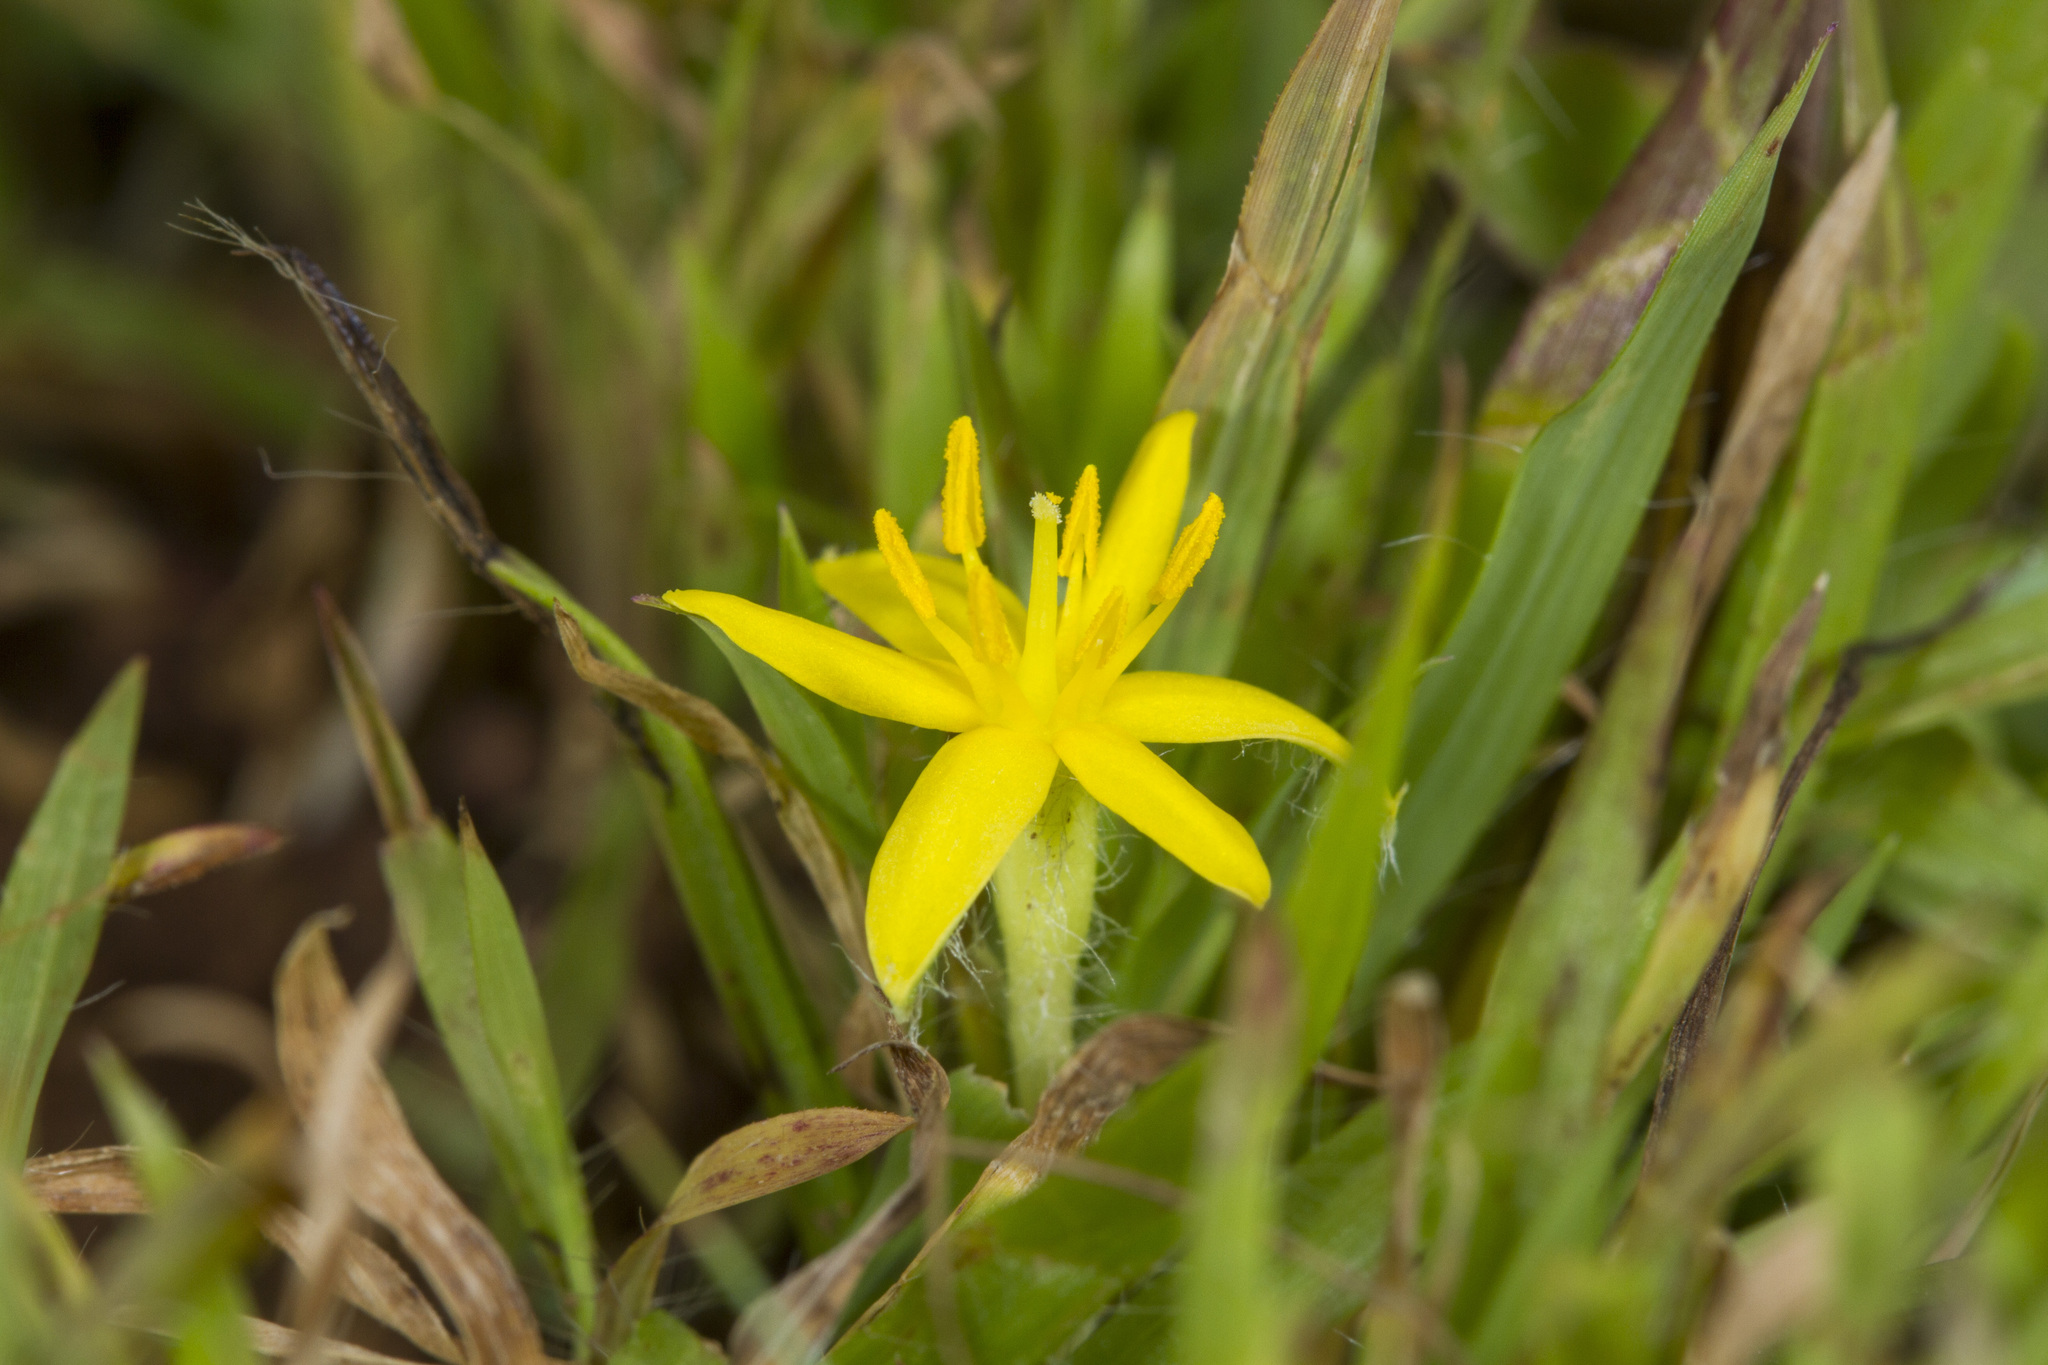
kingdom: Plantae
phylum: Tracheophyta
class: Liliopsida
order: Asparagales
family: Hypoxidaceae
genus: Curculigo
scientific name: Curculigo orchioides
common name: Golden eye-grass
